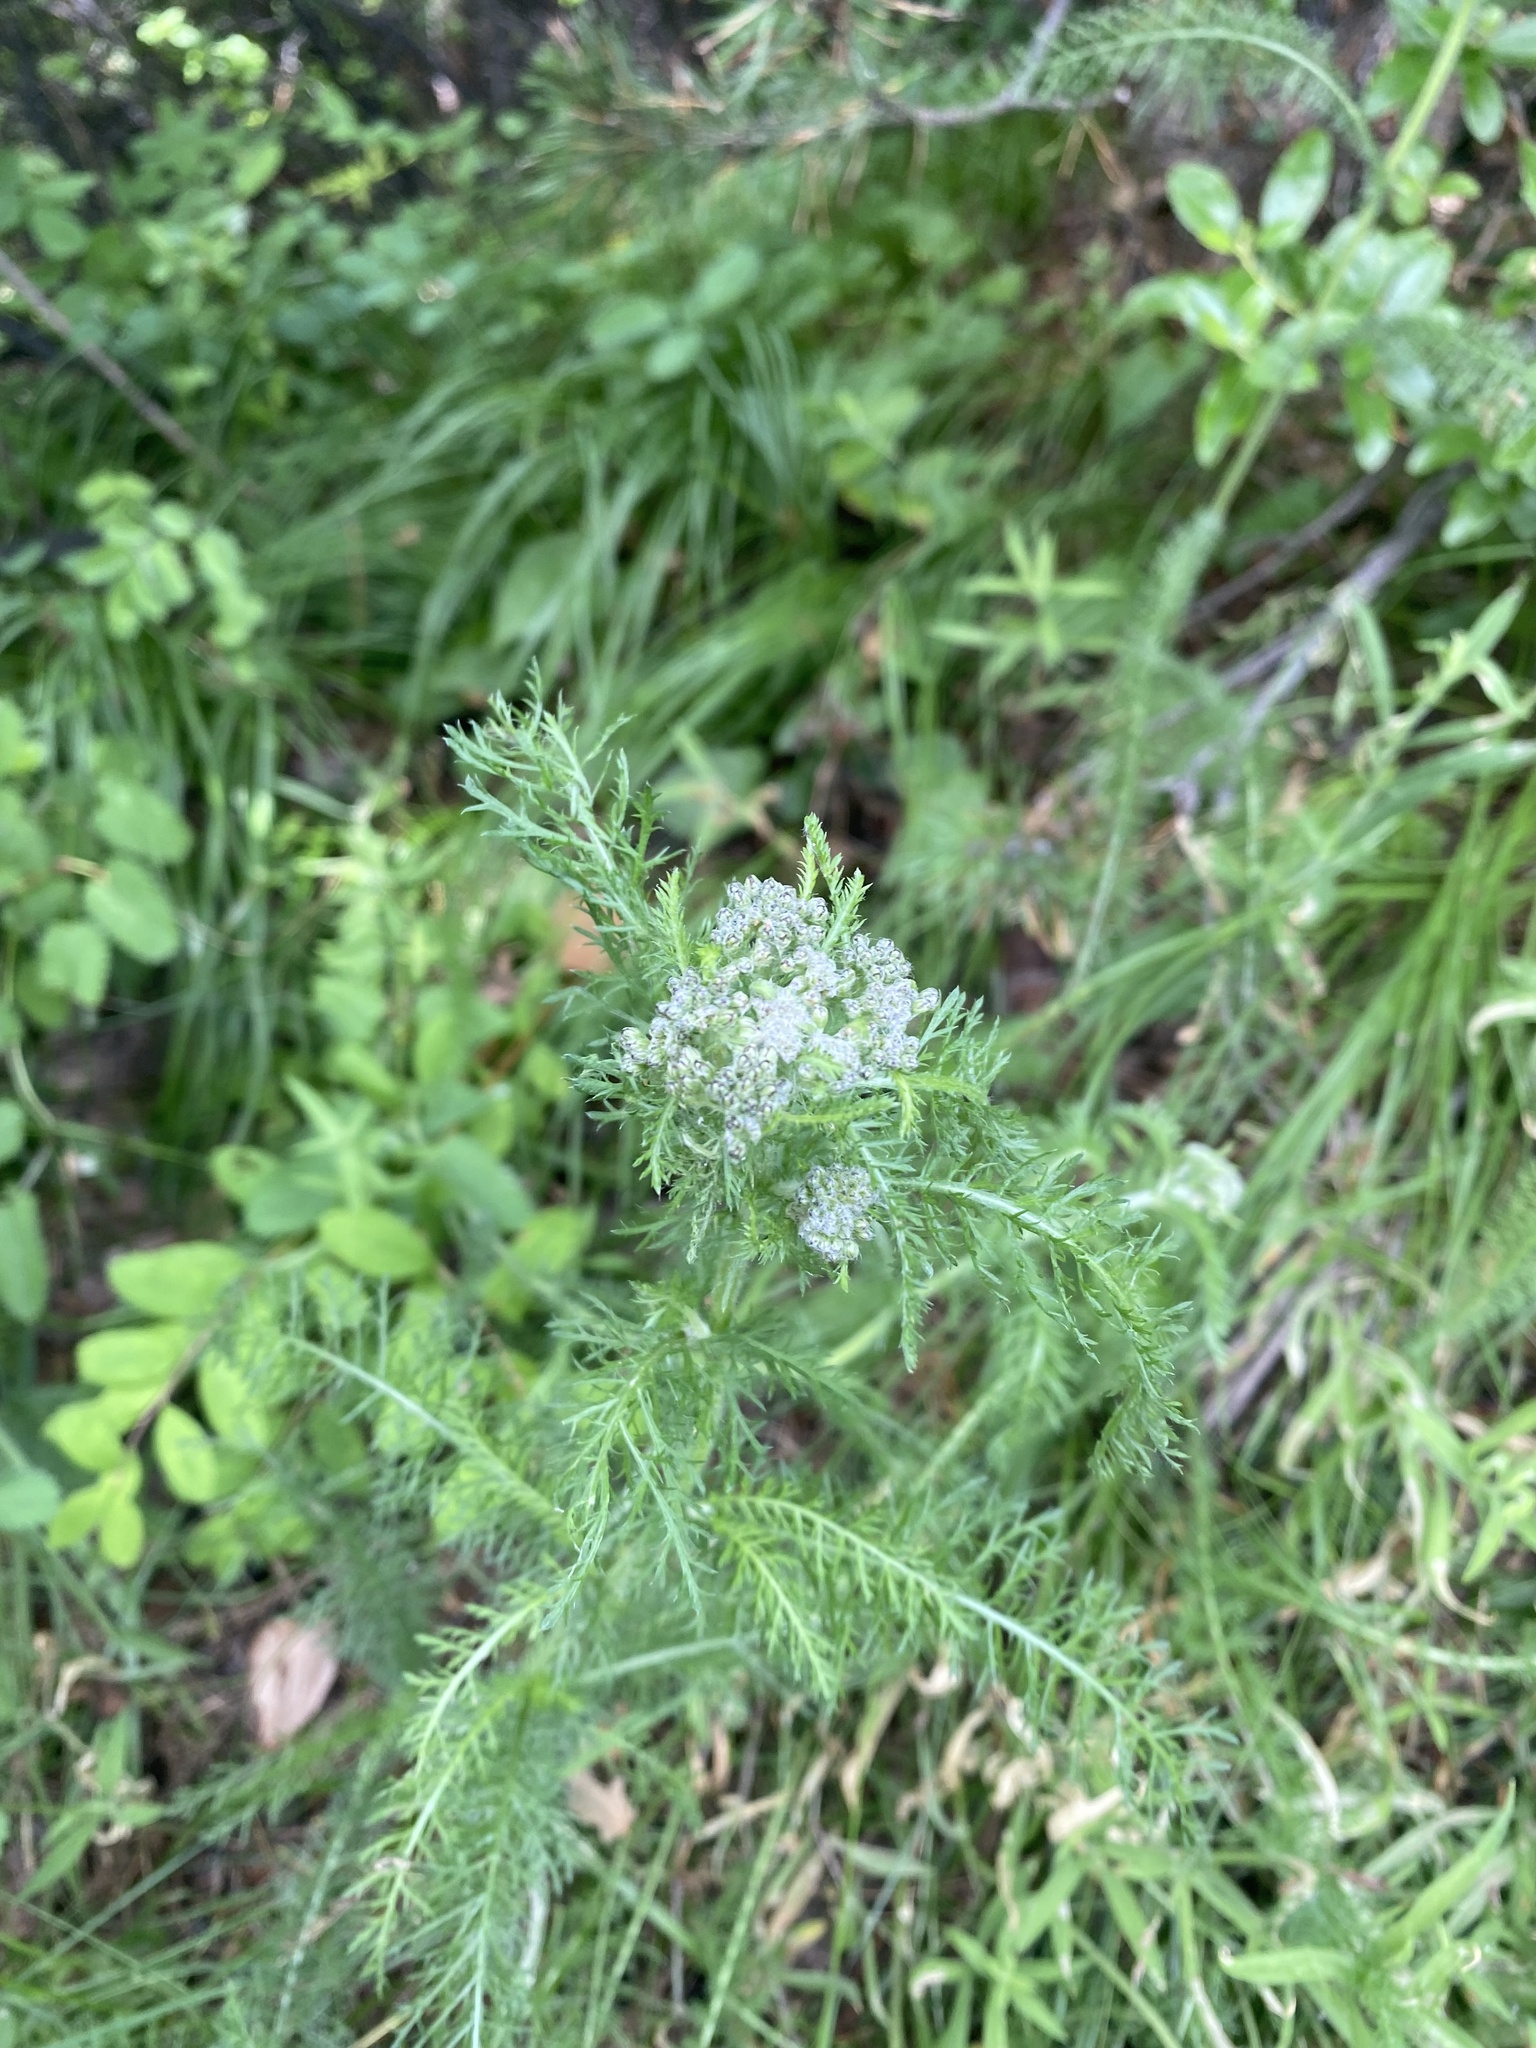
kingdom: Plantae
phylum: Tracheophyta
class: Magnoliopsida
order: Asterales
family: Asteraceae
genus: Achillea
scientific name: Achillea millefolium
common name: Yarrow
